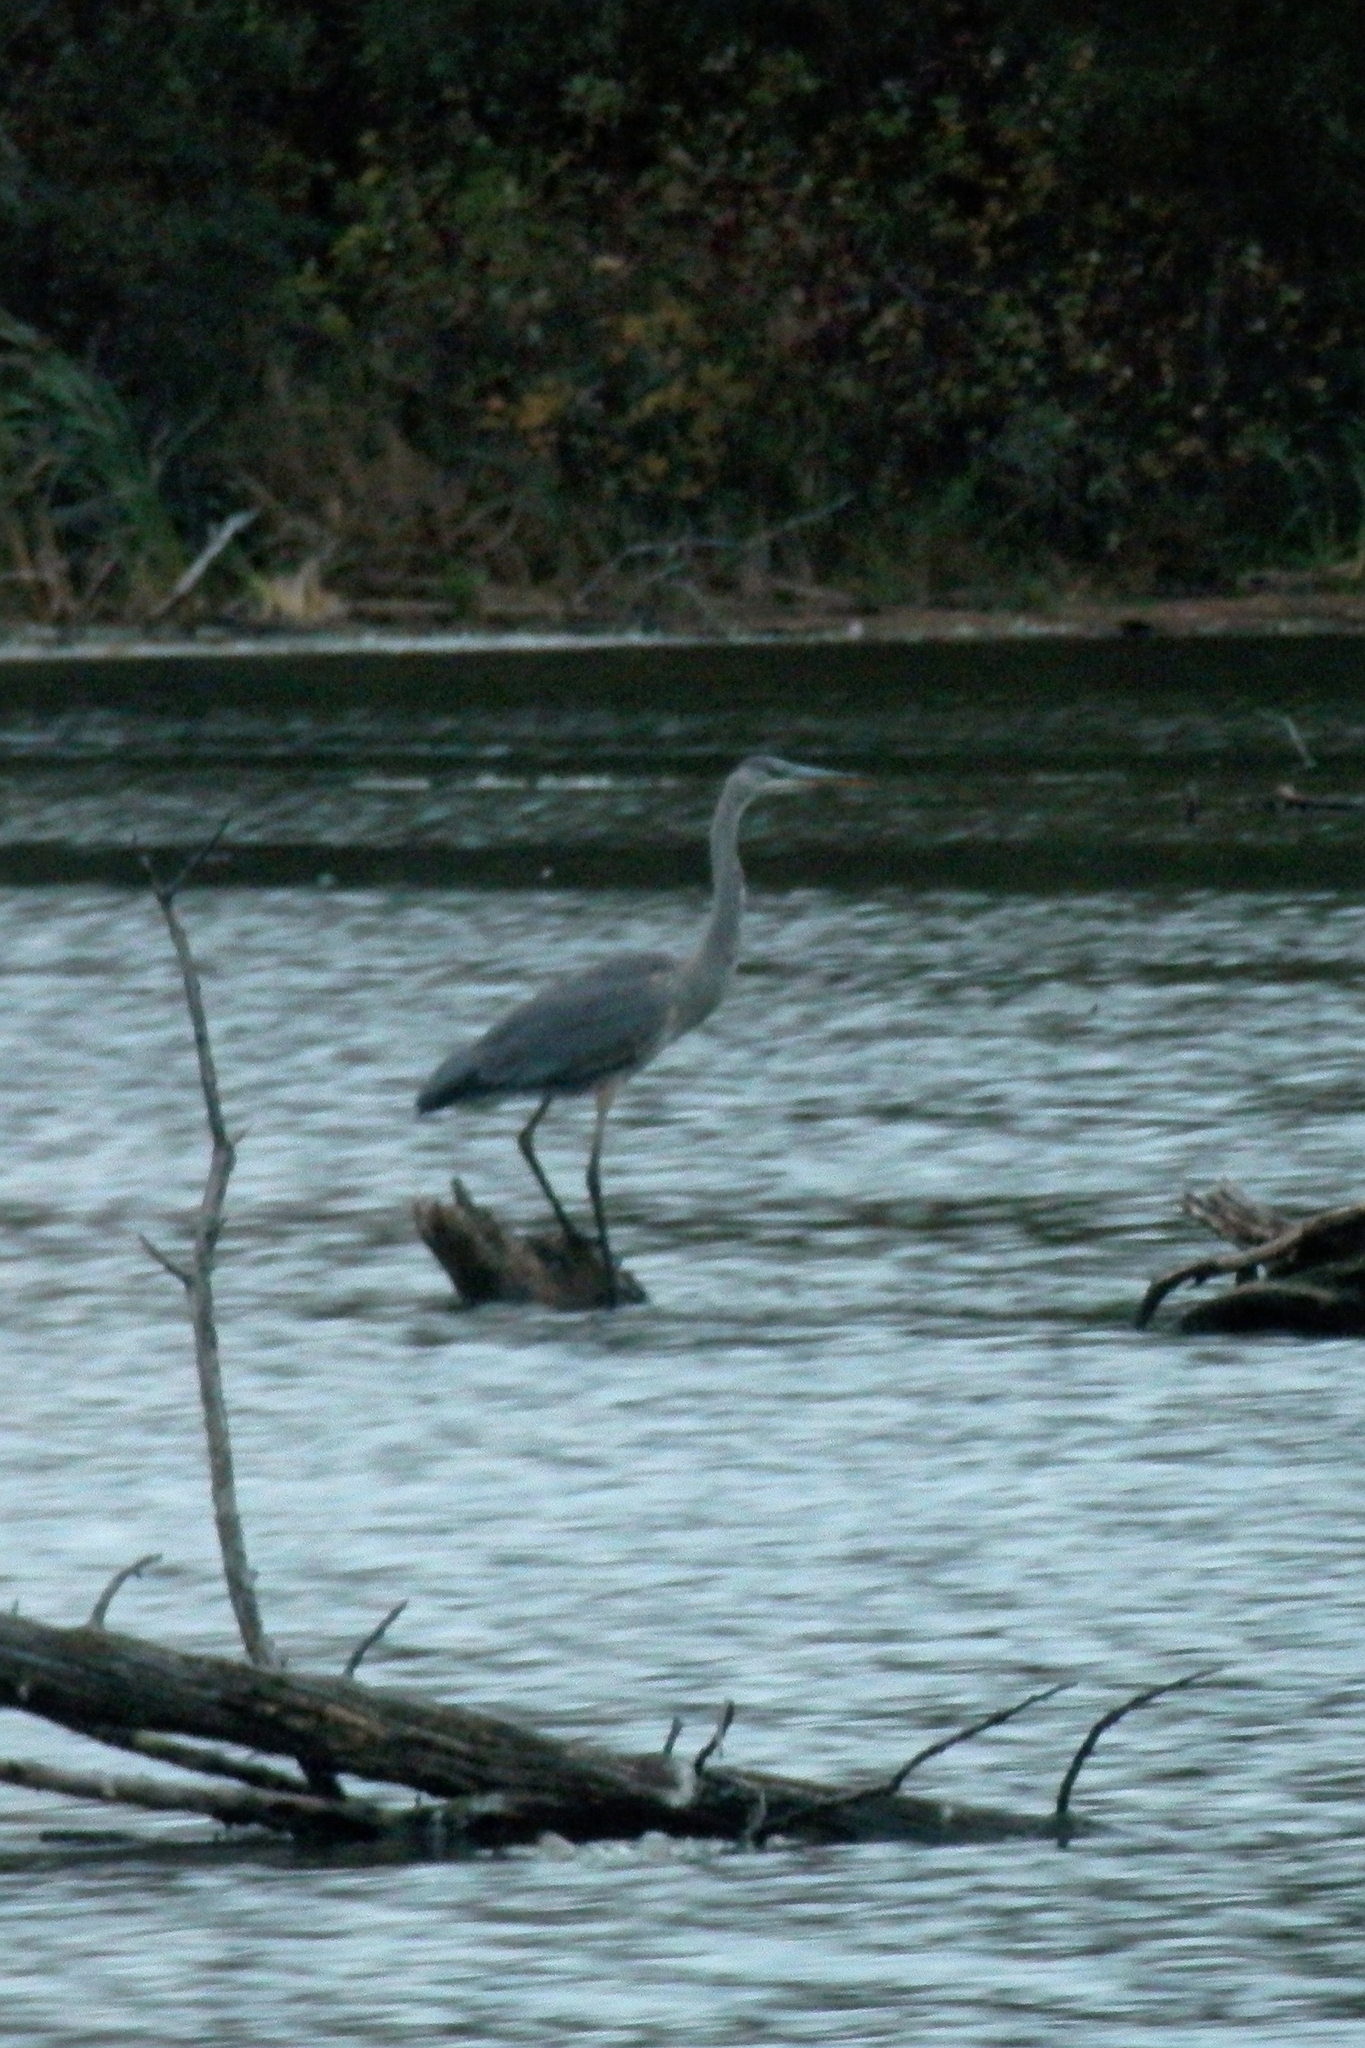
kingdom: Animalia
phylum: Chordata
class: Aves
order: Pelecaniformes
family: Ardeidae
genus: Ardea
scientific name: Ardea herodias
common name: Great blue heron
